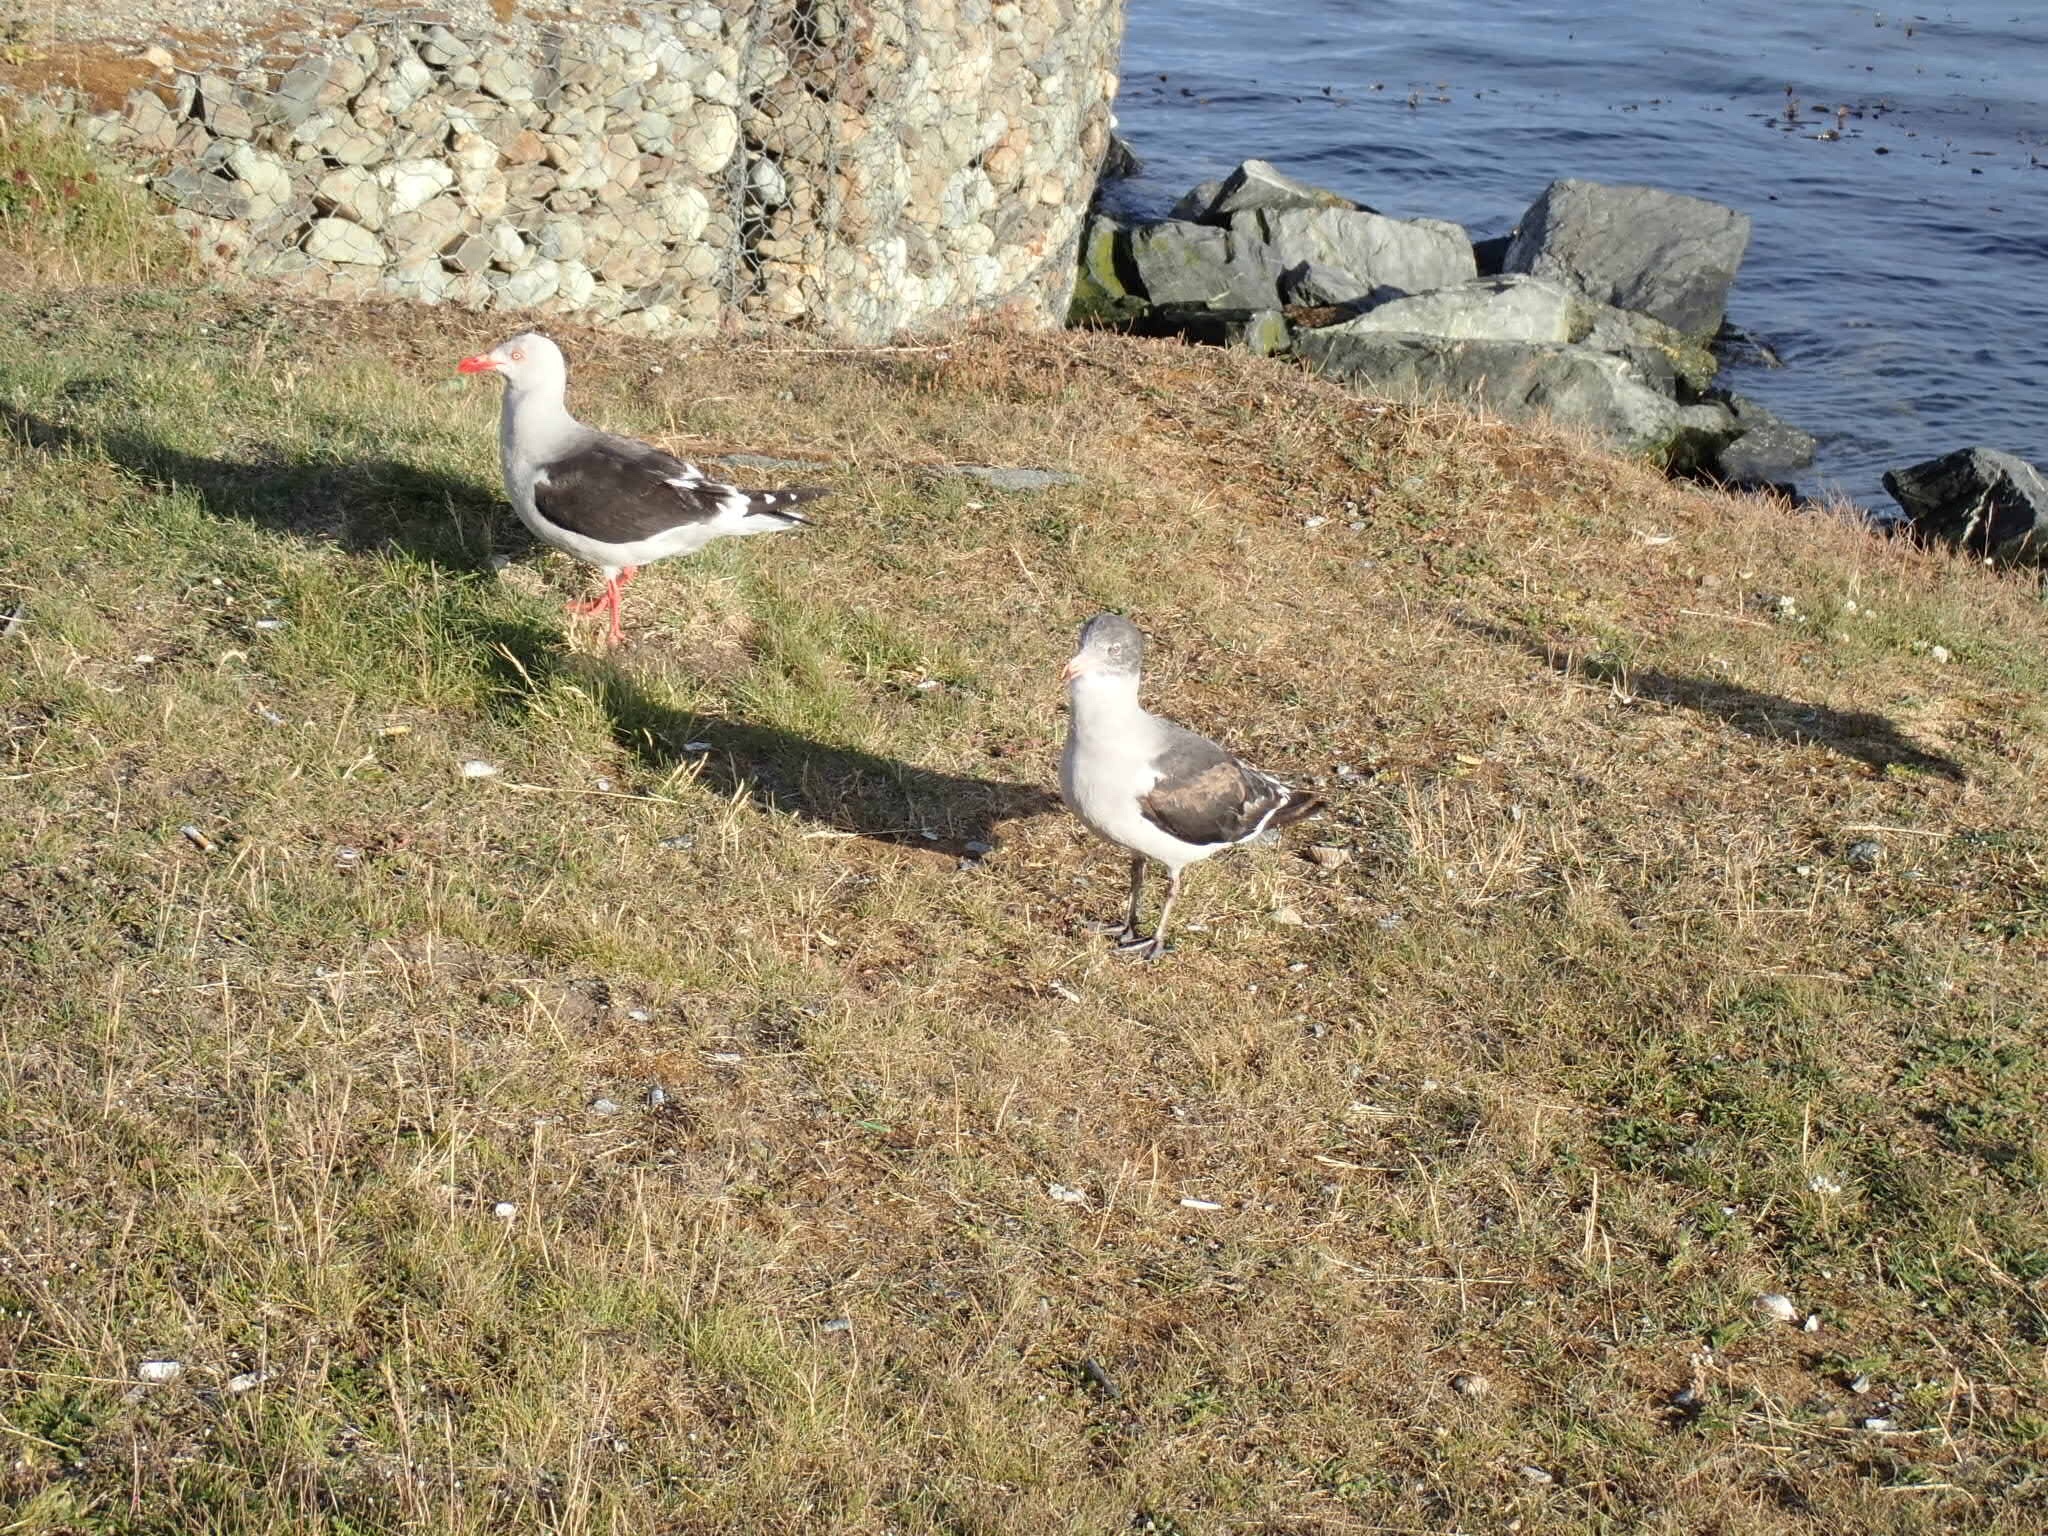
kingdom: Animalia
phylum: Chordata
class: Aves
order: Charadriiformes
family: Laridae
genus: Leucophaeus
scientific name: Leucophaeus scoresbii
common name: Dolphin gull
